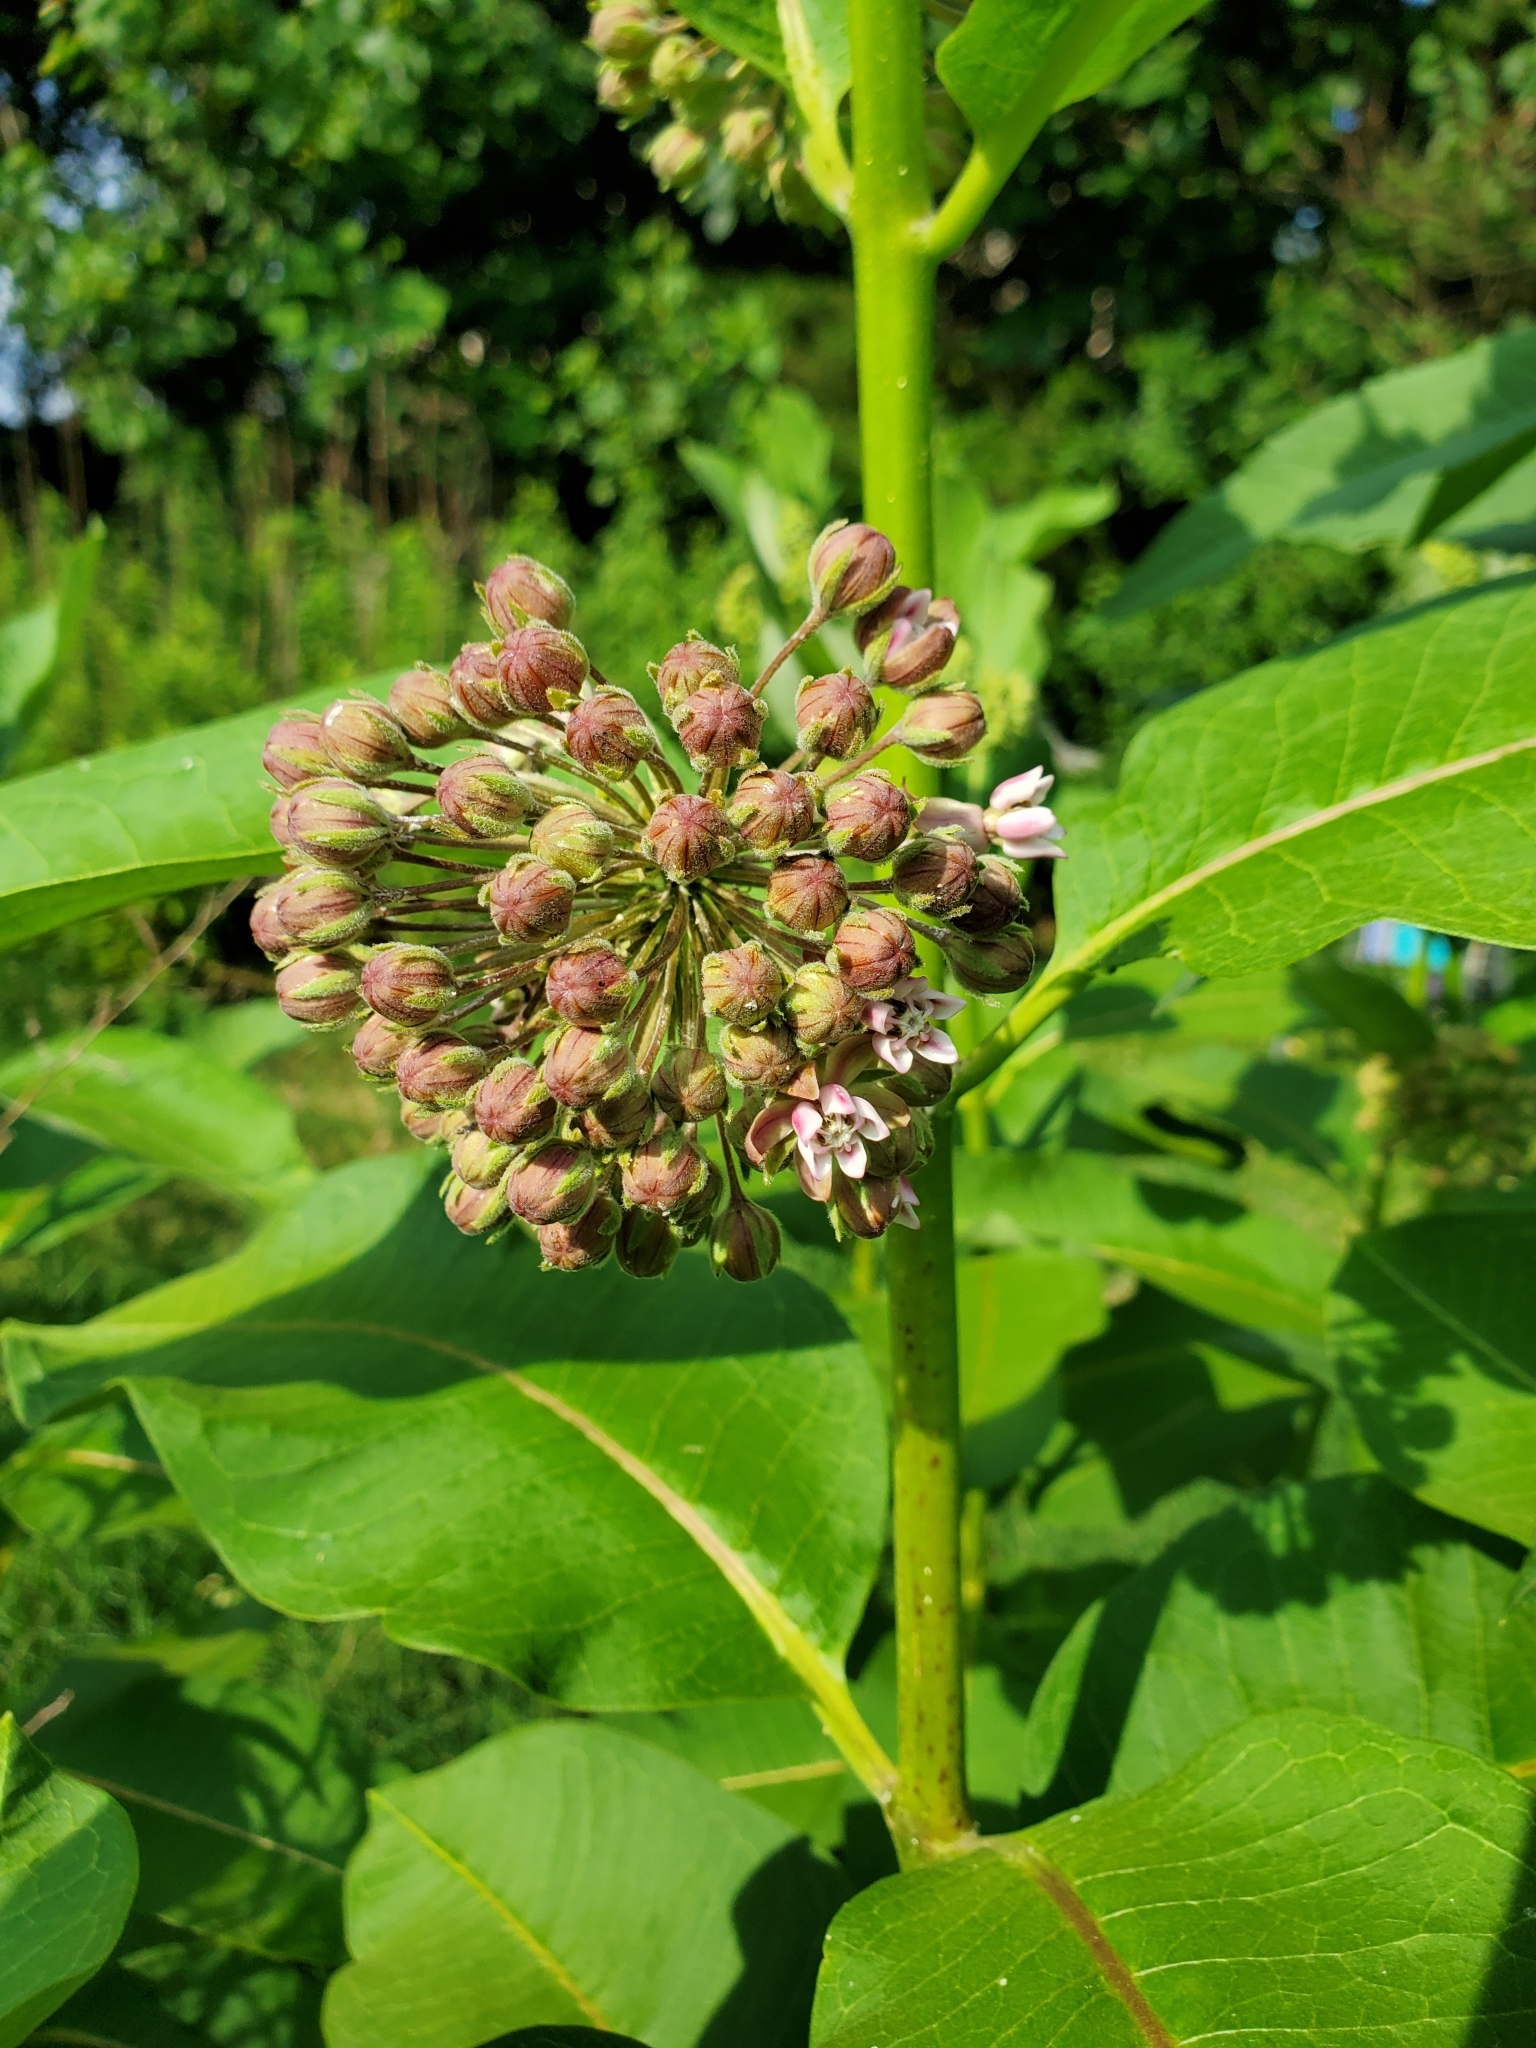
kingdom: Plantae
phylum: Tracheophyta
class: Magnoliopsida
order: Gentianales
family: Apocynaceae
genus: Asclepias
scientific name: Asclepias syriaca
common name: Common milkweed
